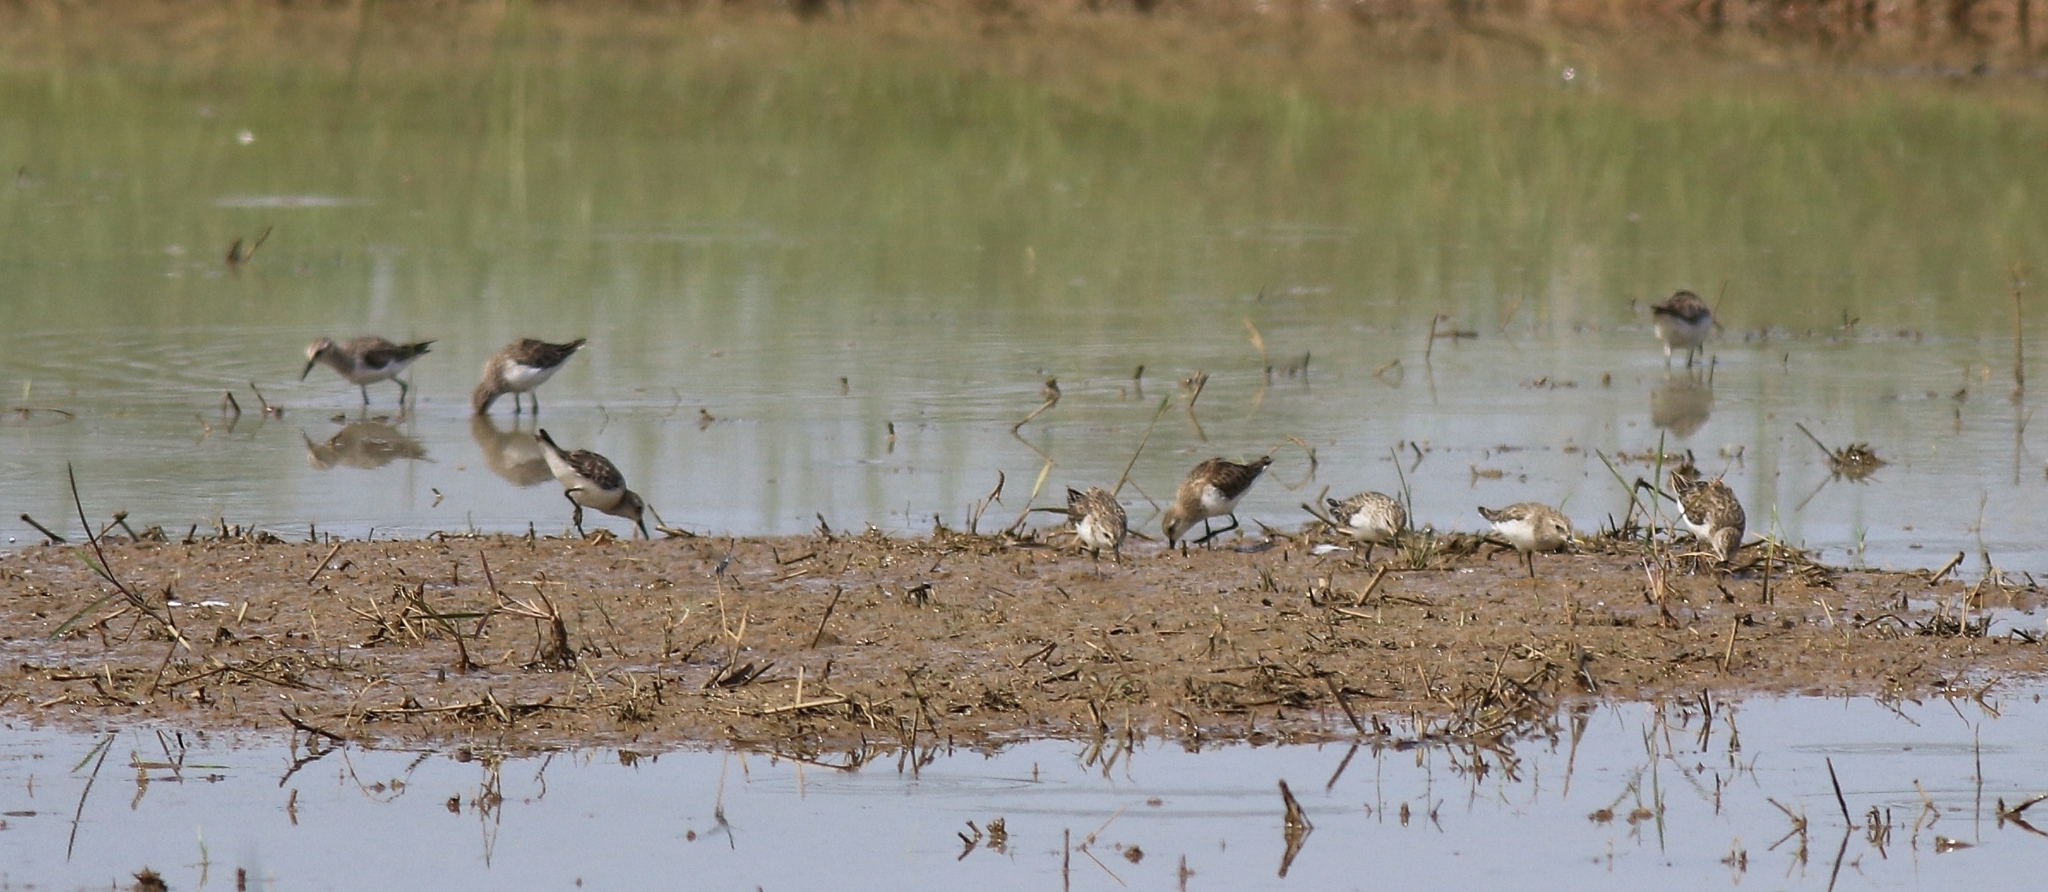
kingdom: Animalia
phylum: Chordata
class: Aves
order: Charadriiformes
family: Scolopacidae
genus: Calidris
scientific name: Calidris minuta
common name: Little stint
